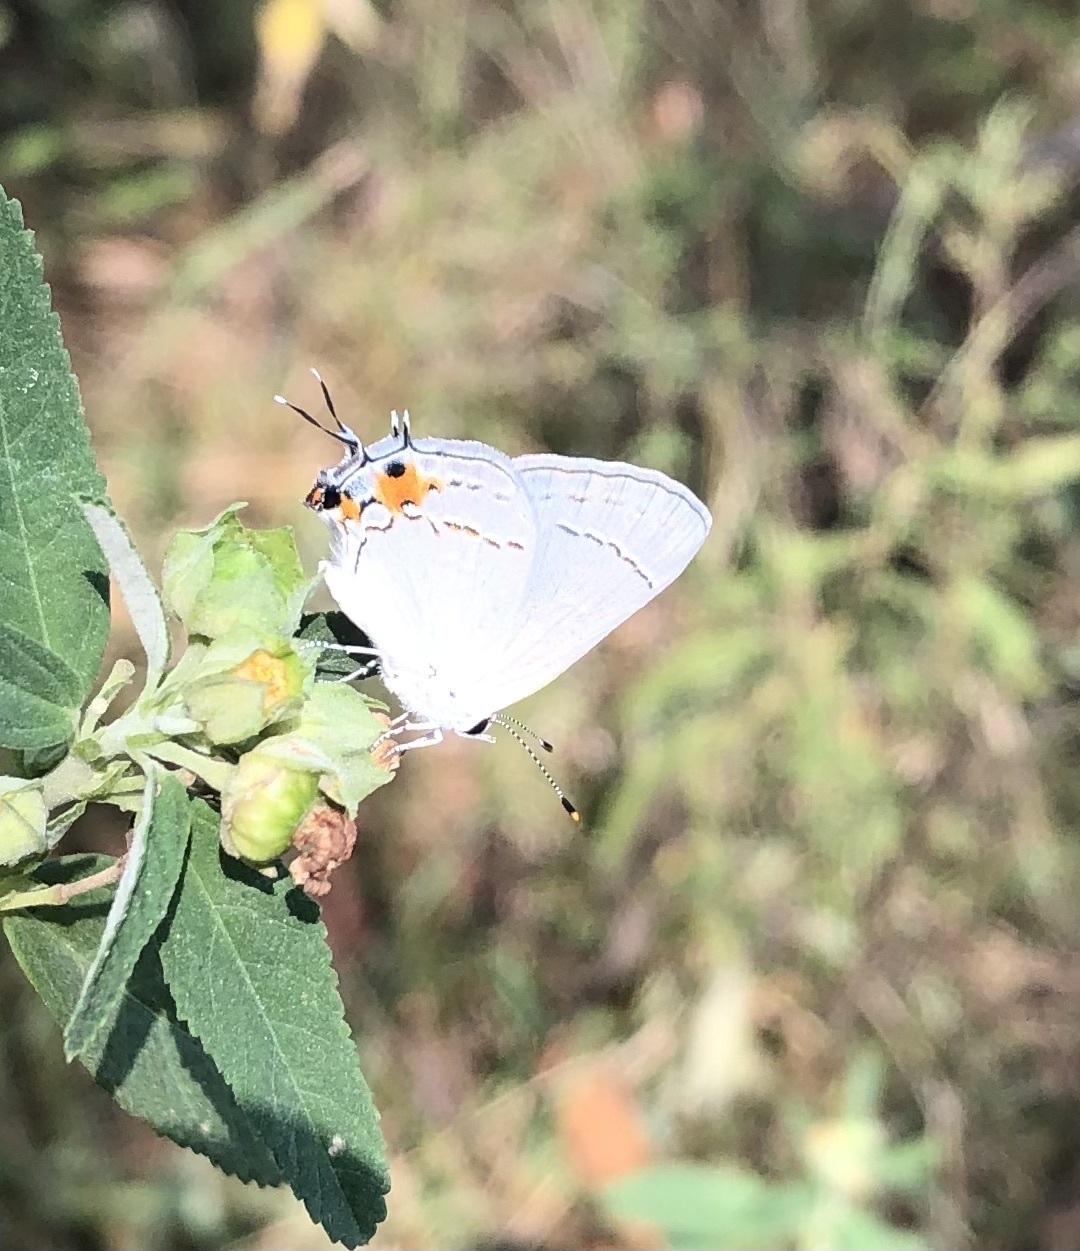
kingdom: Animalia
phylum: Arthropoda
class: Insecta
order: Lepidoptera
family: Lycaenidae
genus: Strymon
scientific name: Strymon melinus
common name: Gray hairstreak
